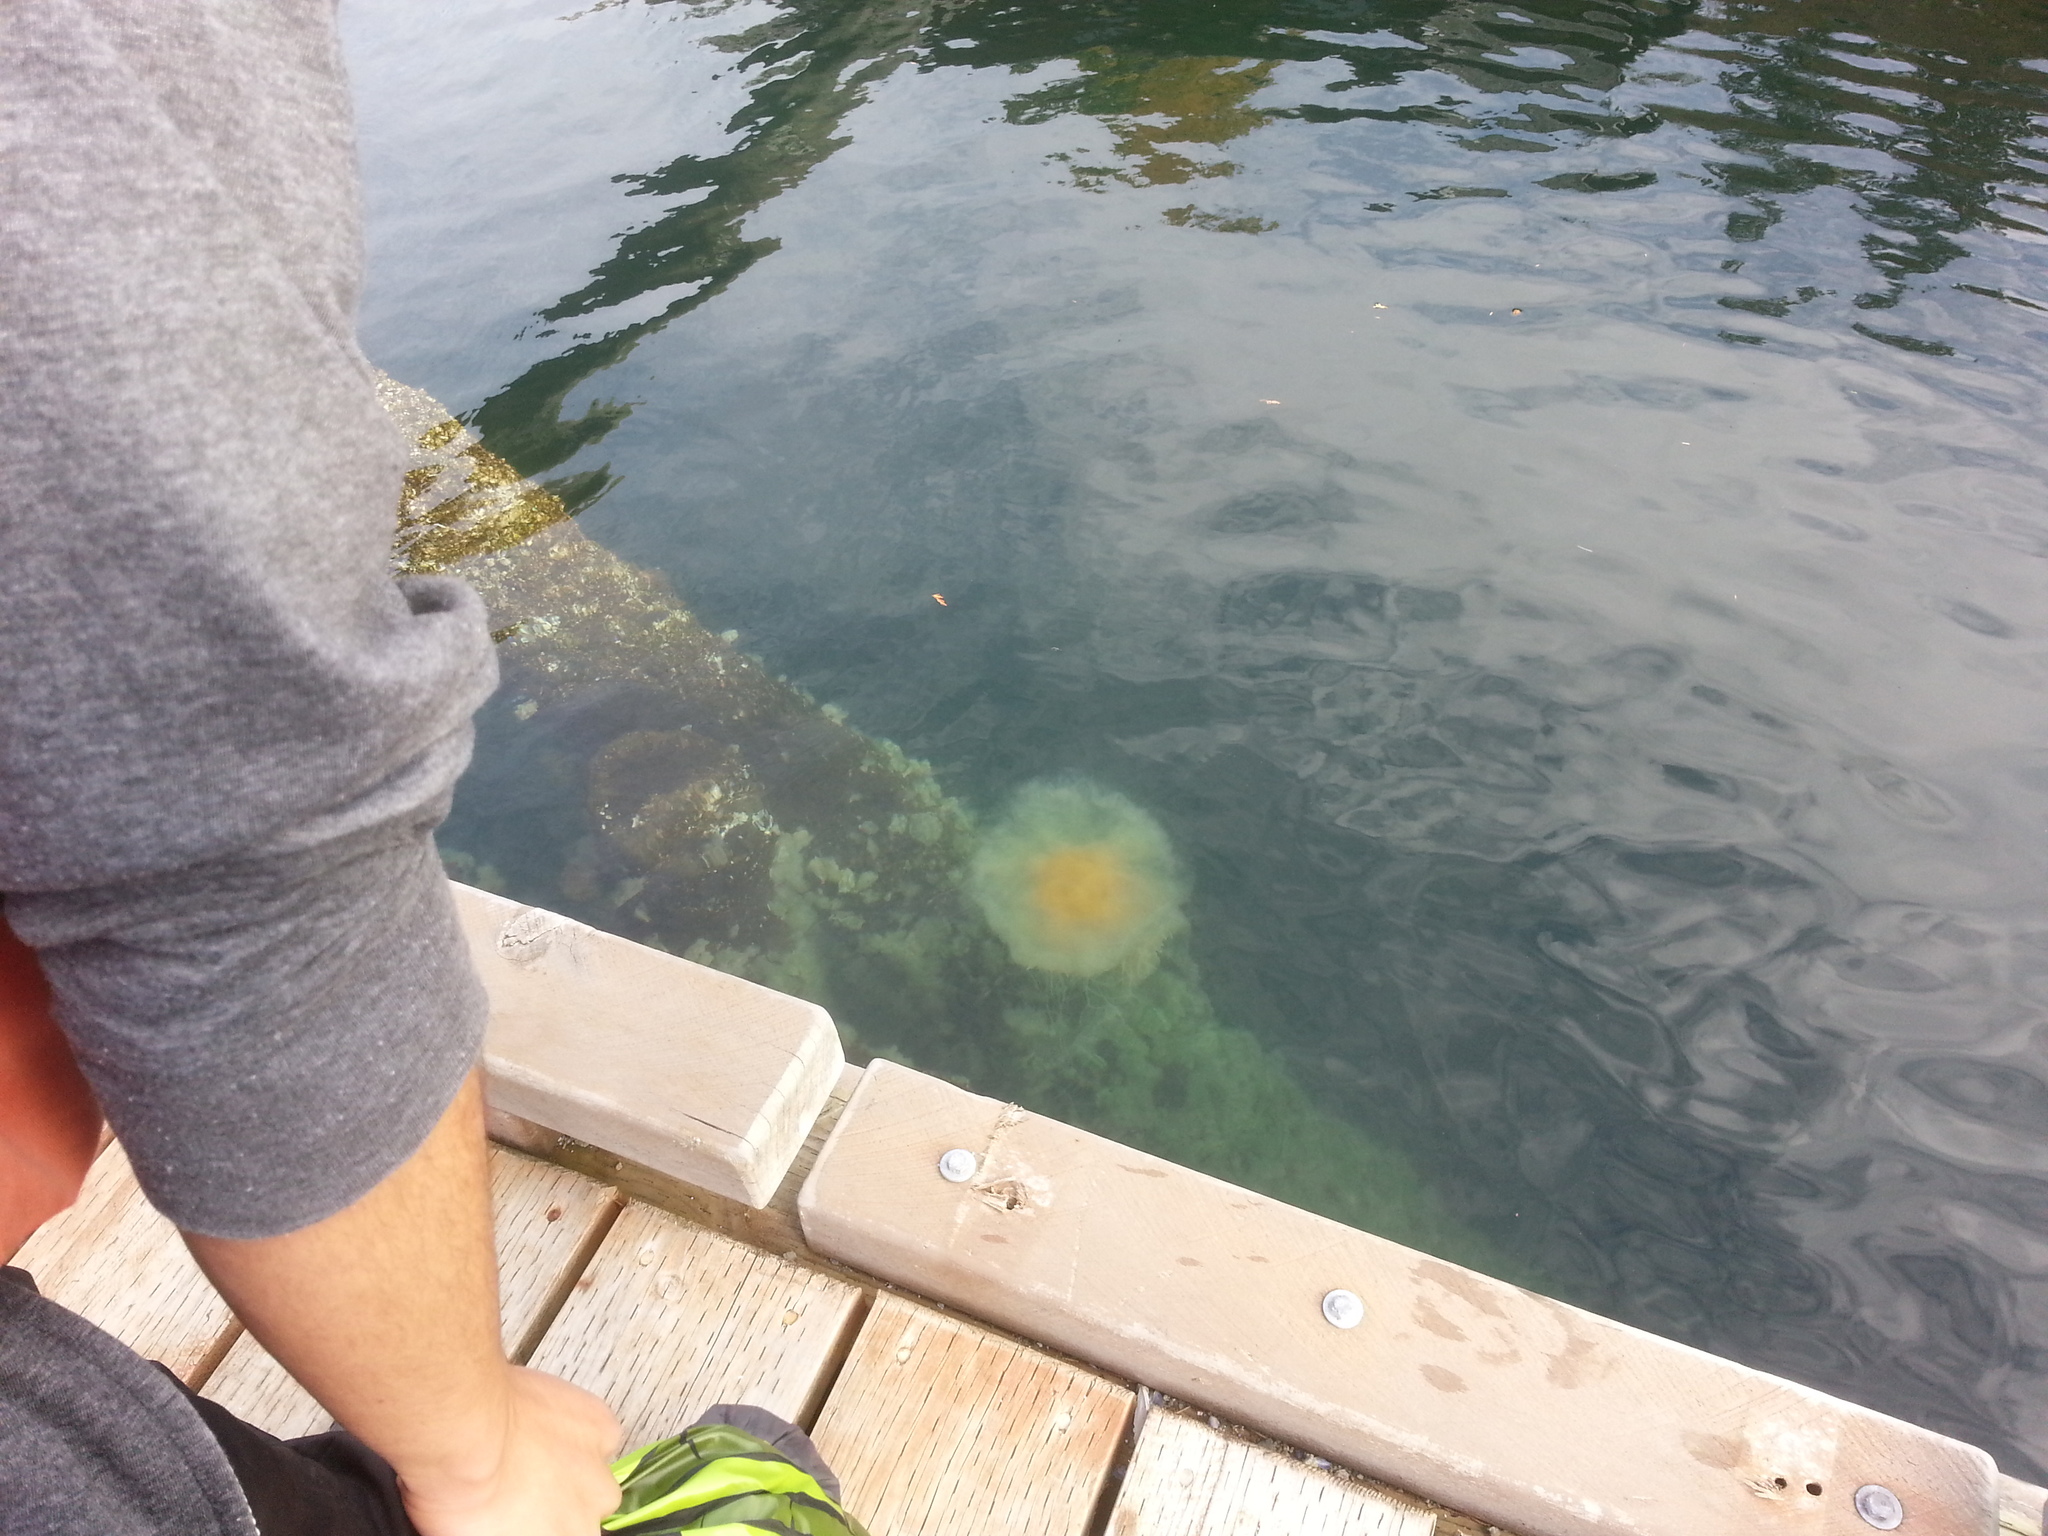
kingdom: Animalia
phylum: Cnidaria
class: Scyphozoa
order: Semaeostomeae
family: Phacellophoridae
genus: Phacellophora
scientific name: Phacellophora camtschatica
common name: Fried-egg jellyfish
